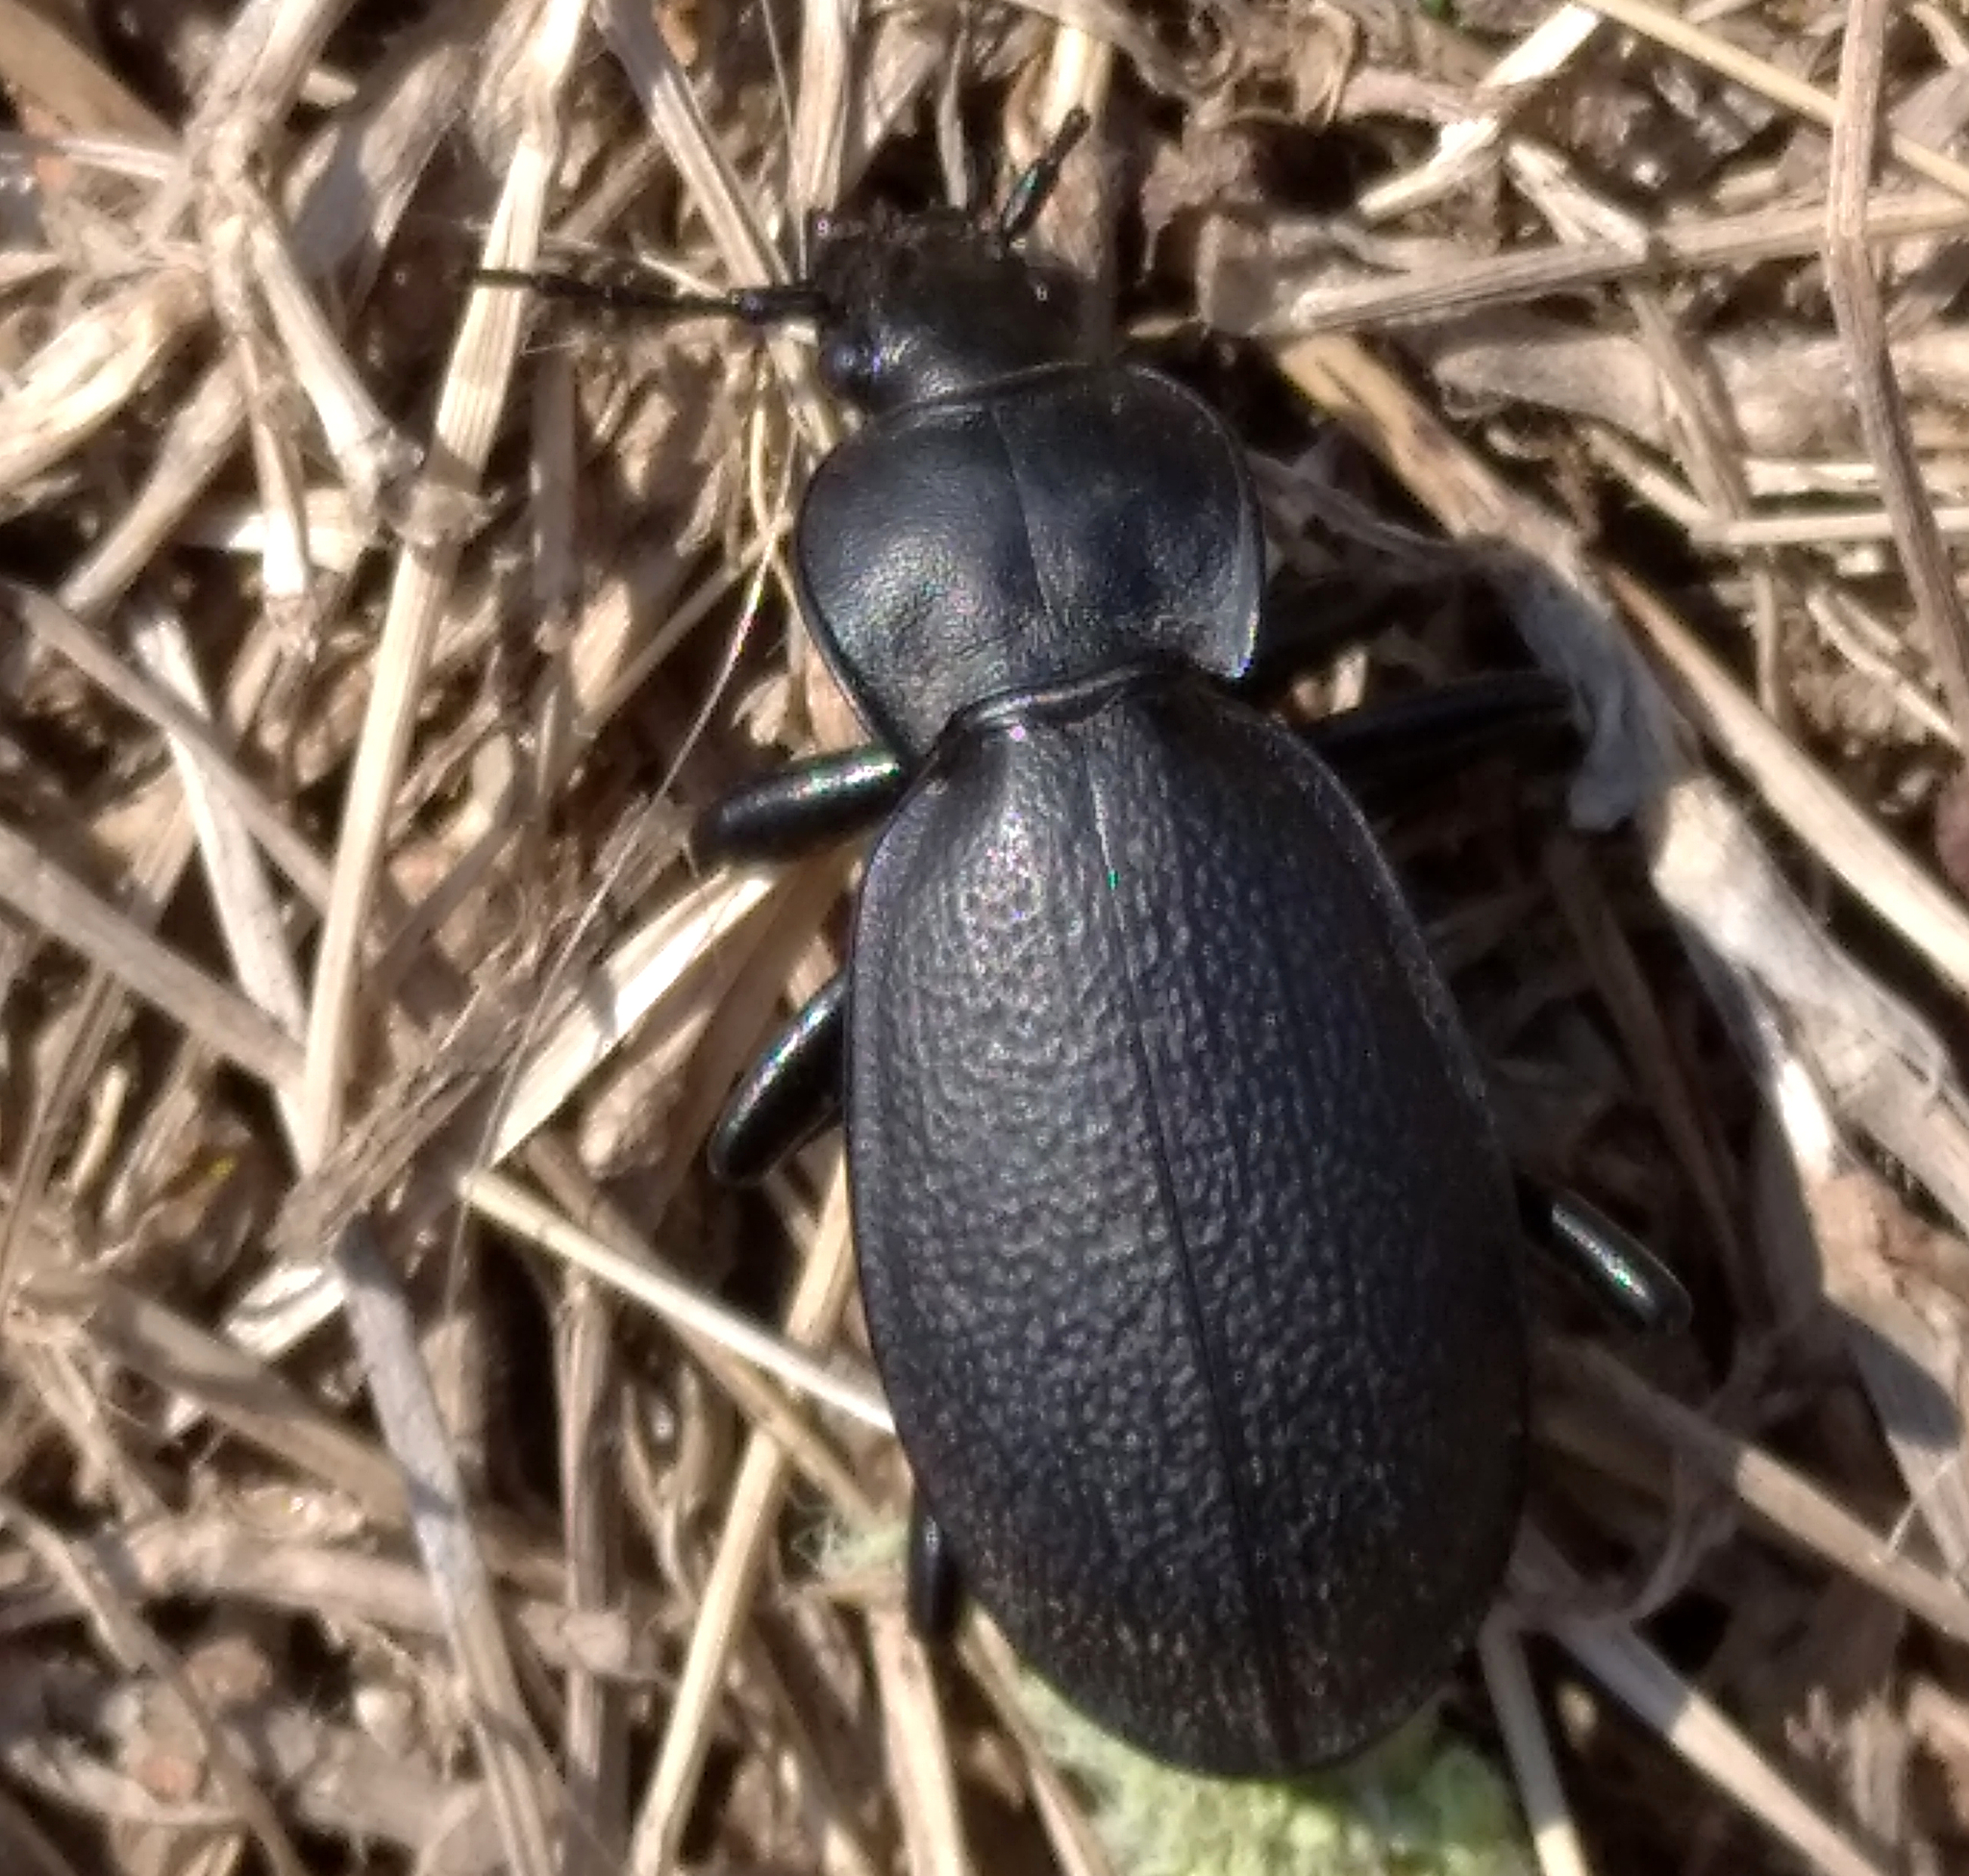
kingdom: Animalia
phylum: Arthropoda
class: Insecta
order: Coleoptera
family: Carabidae
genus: Carabus
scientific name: Carabus coriaceus
